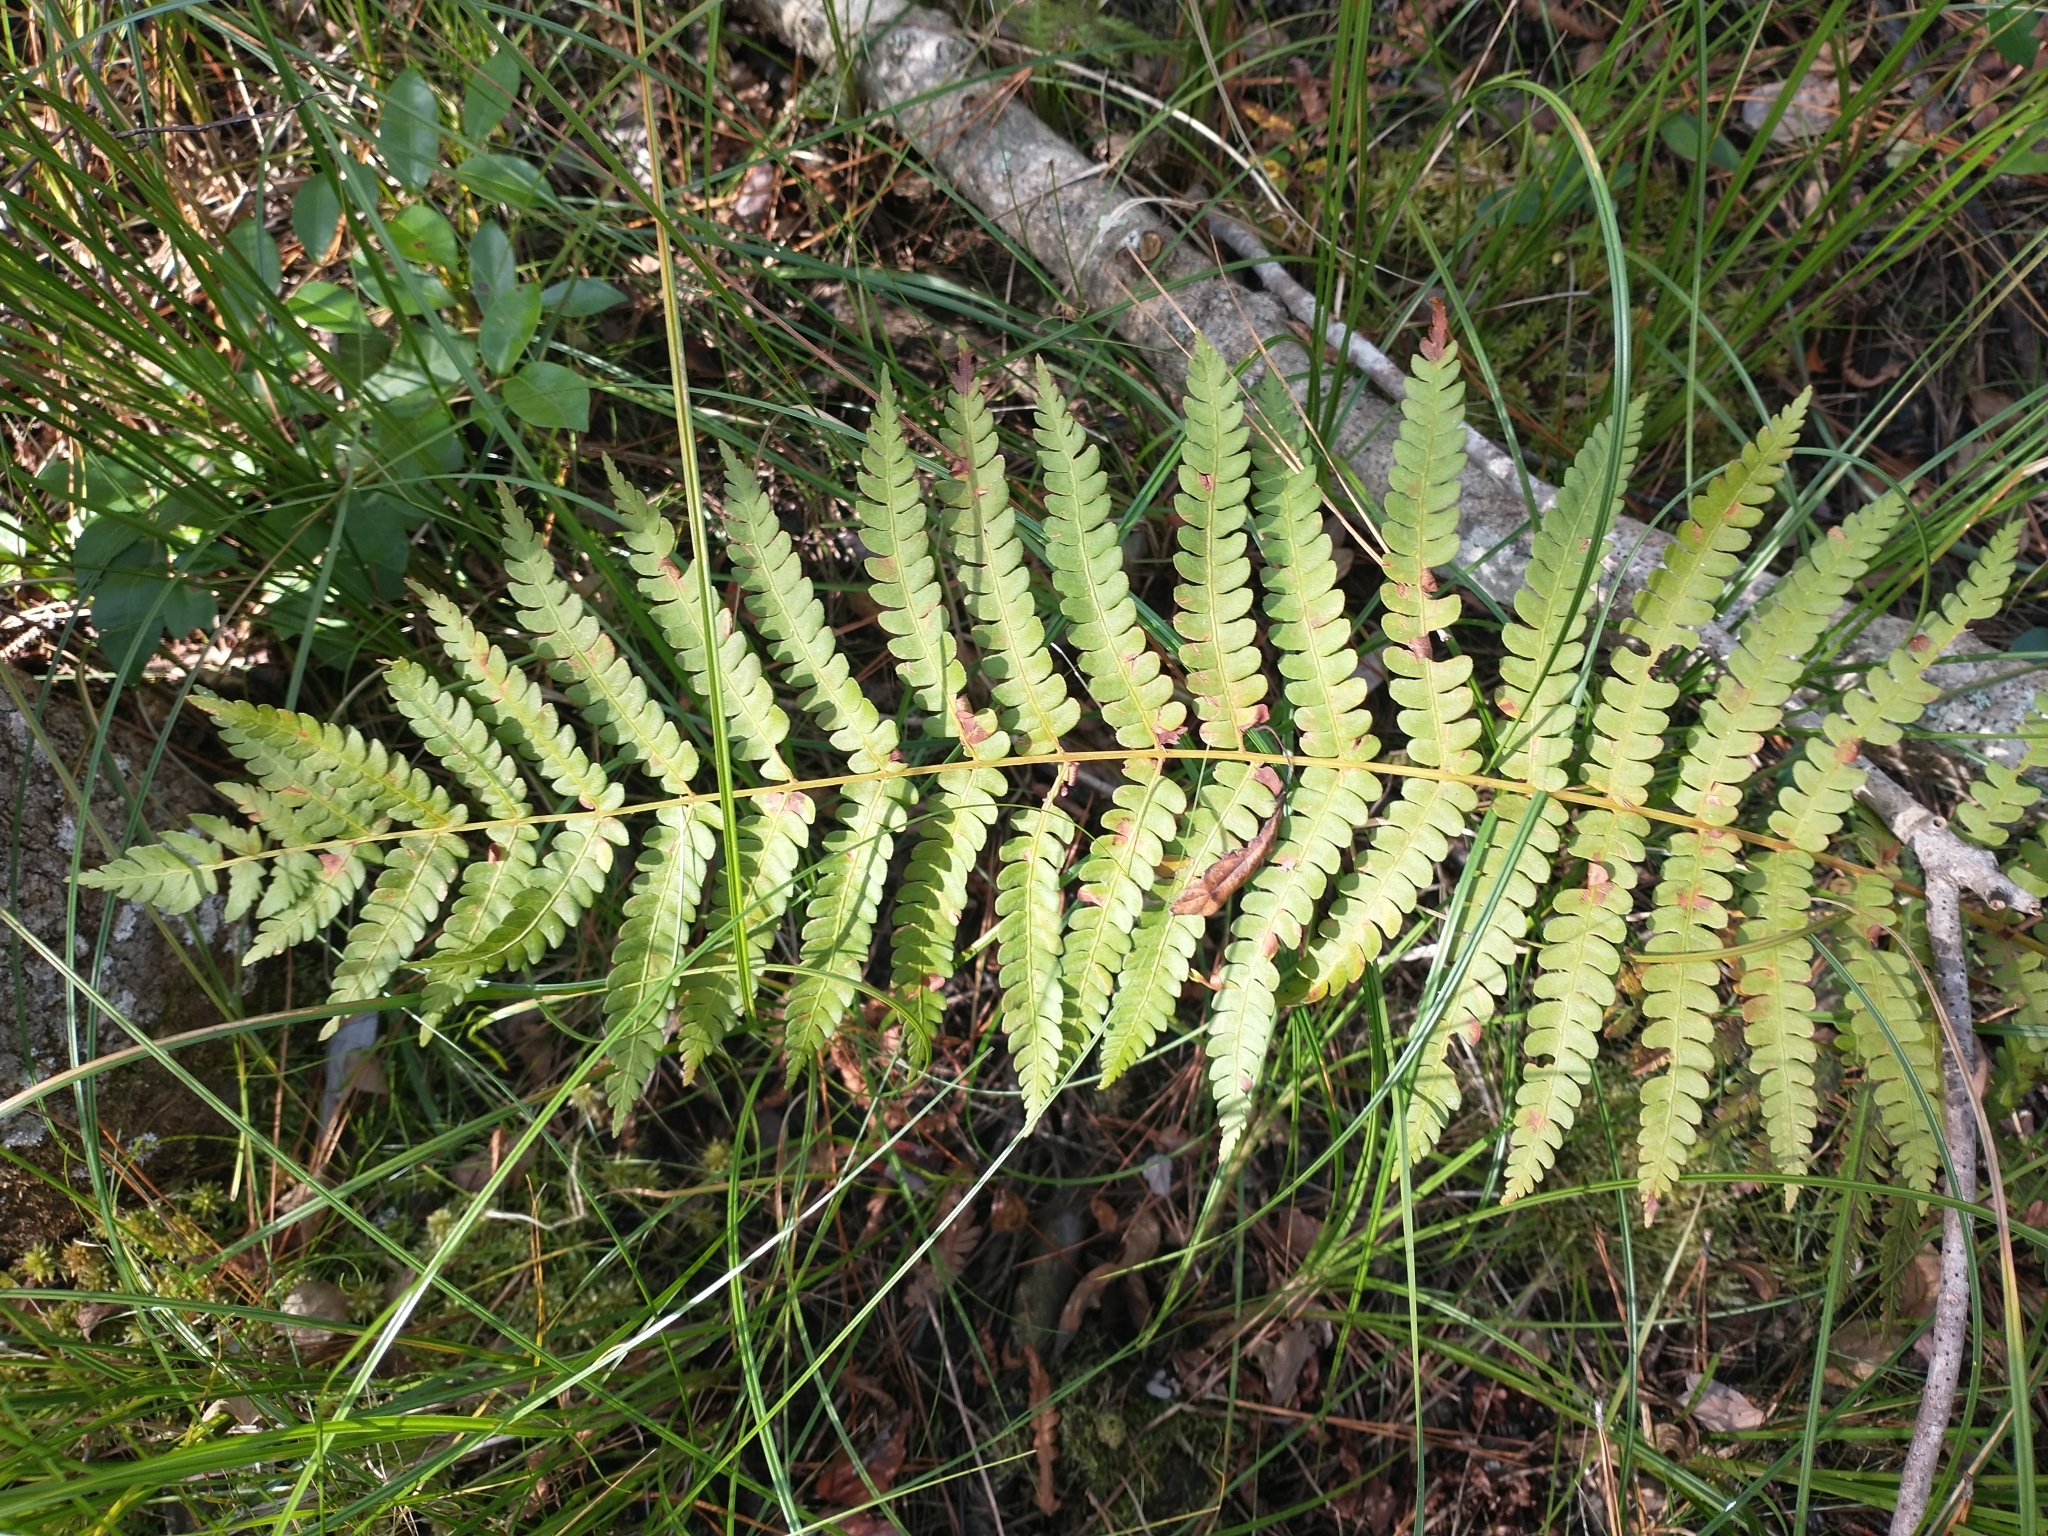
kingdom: Plantae
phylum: Tracheophyta
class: Polypodiopsida
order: Osmundales
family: Osmundaceae
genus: Osmundastrum
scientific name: Osmundastrum cinnamomeum
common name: Cinnamon fern
